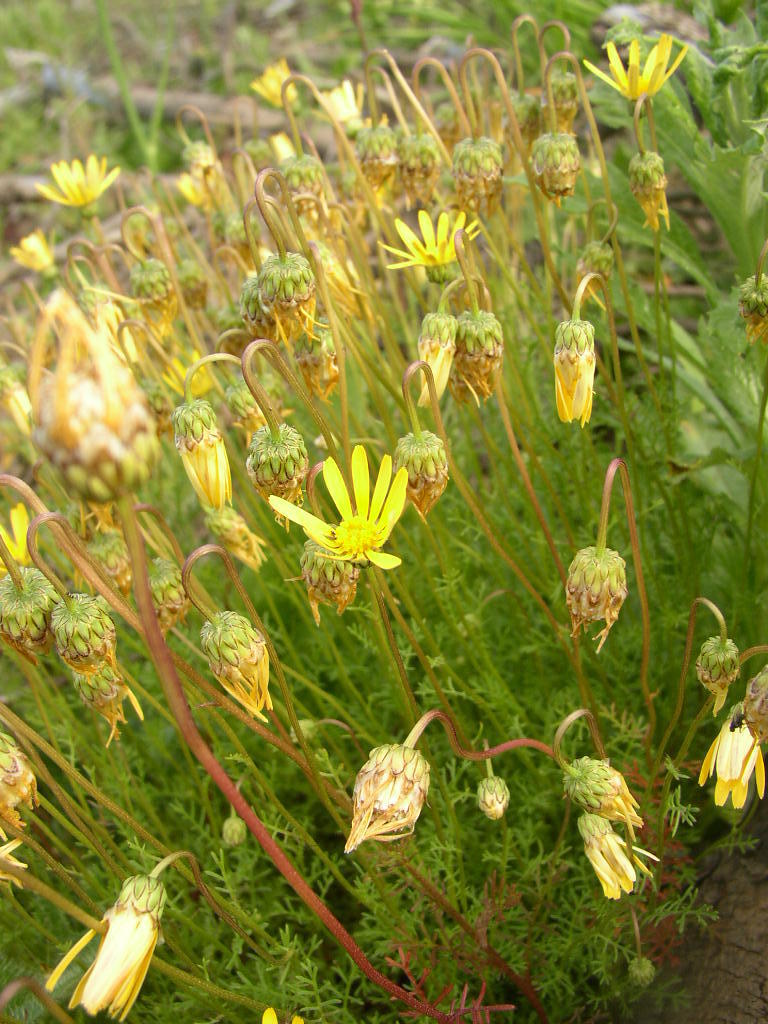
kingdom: Plantae
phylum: Tracheophyta
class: Magnoliopsida
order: Asterales
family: Asteraceae
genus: Ursinia
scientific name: Ursinia anthemoides
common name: Ursinia
